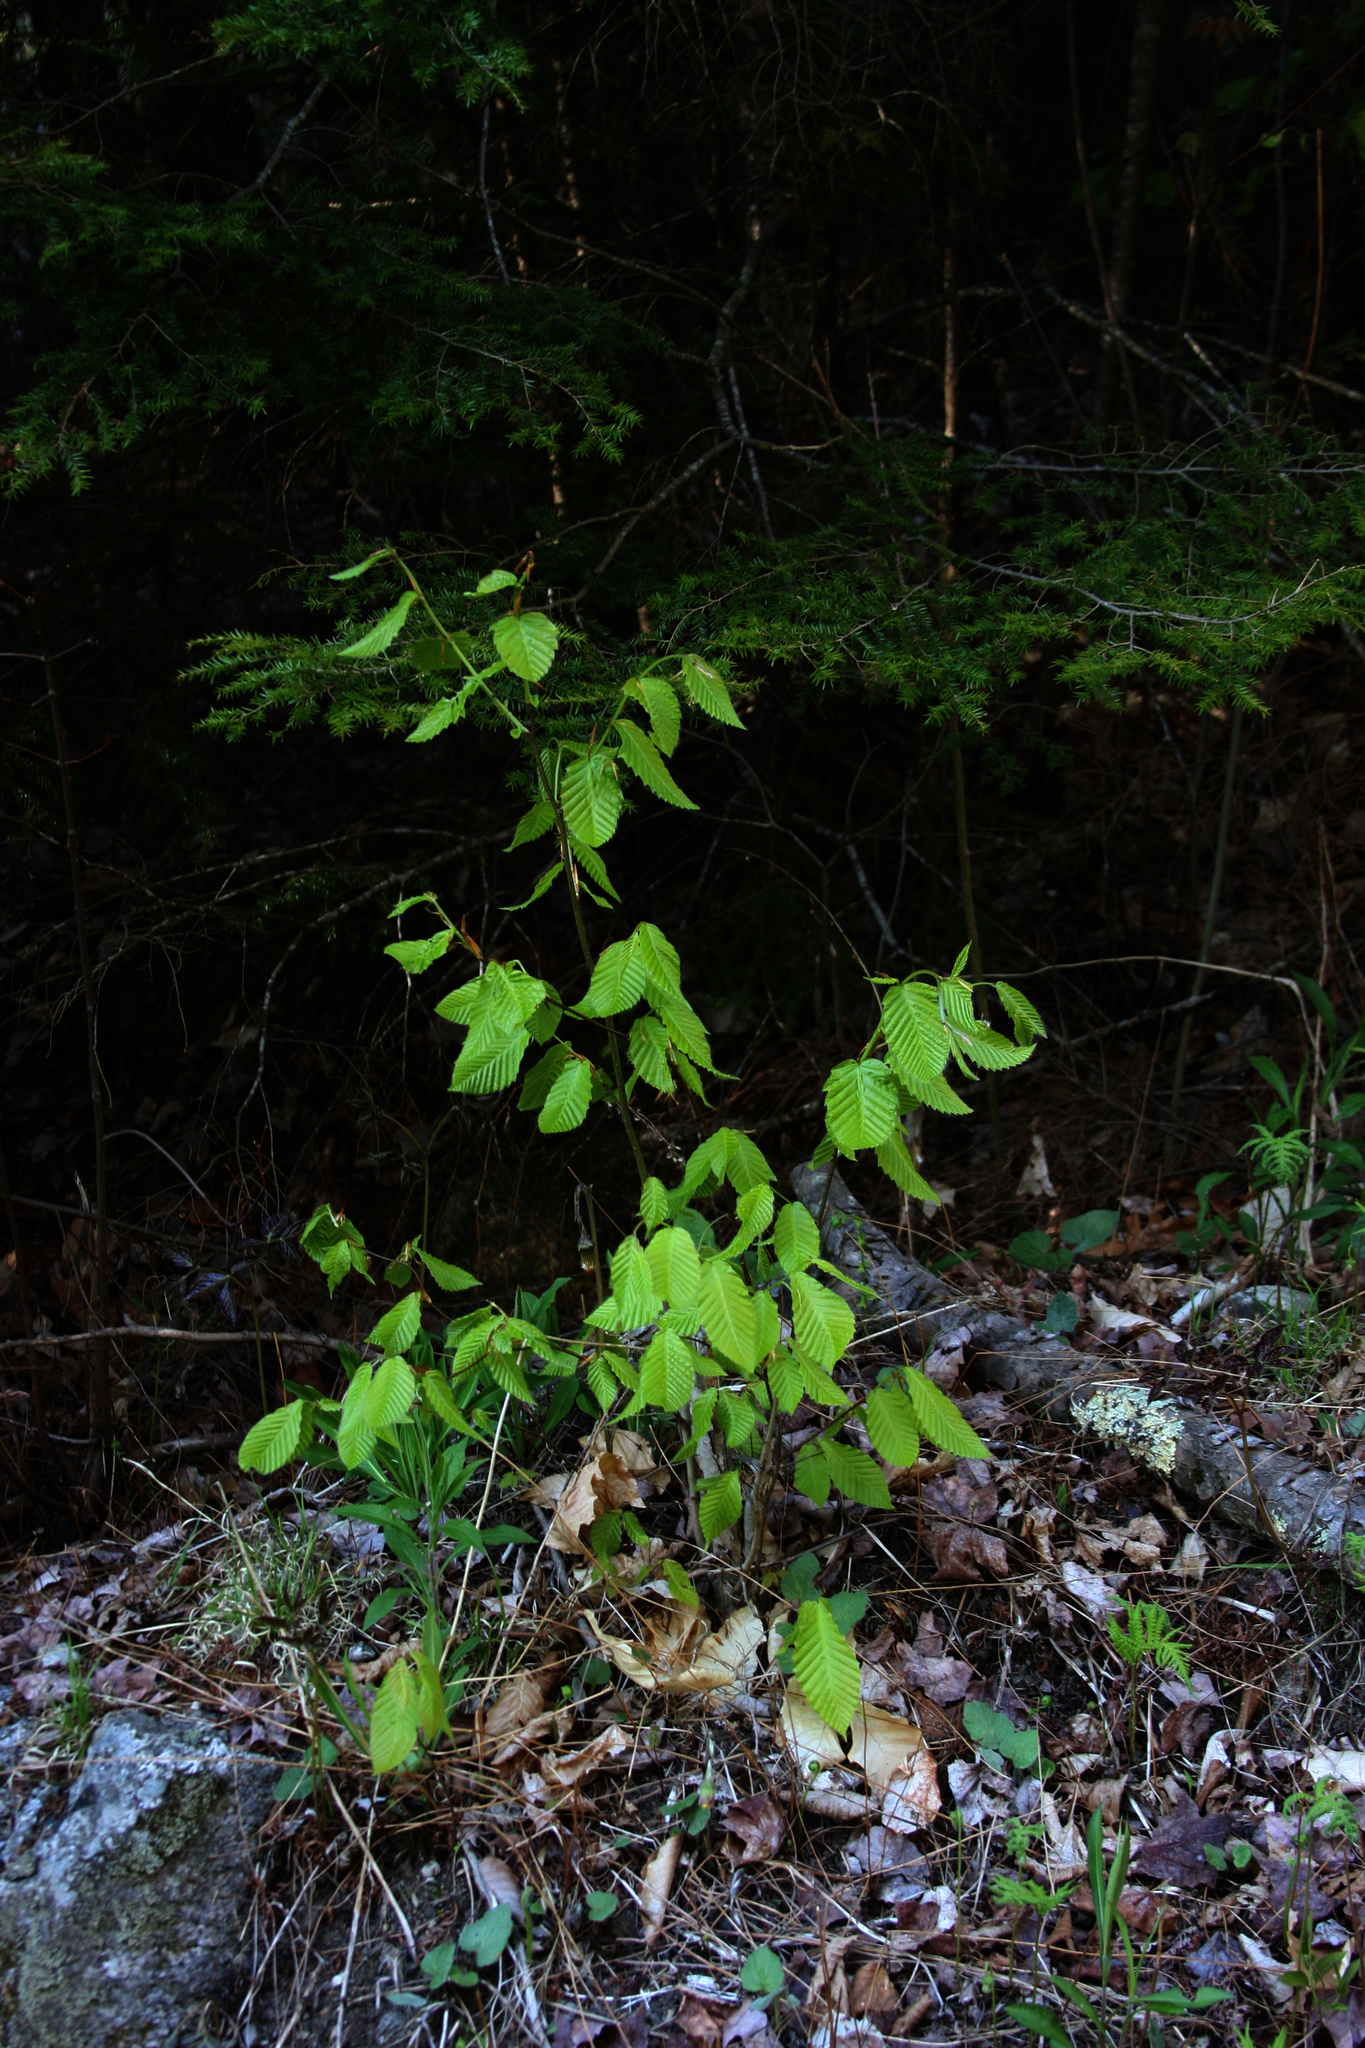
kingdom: Plantae
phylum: Tracheophyta
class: Magnoliopsida
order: Fagales
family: Fagaceae
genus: Fagus
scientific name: Fagus grandifolia
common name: American beech
